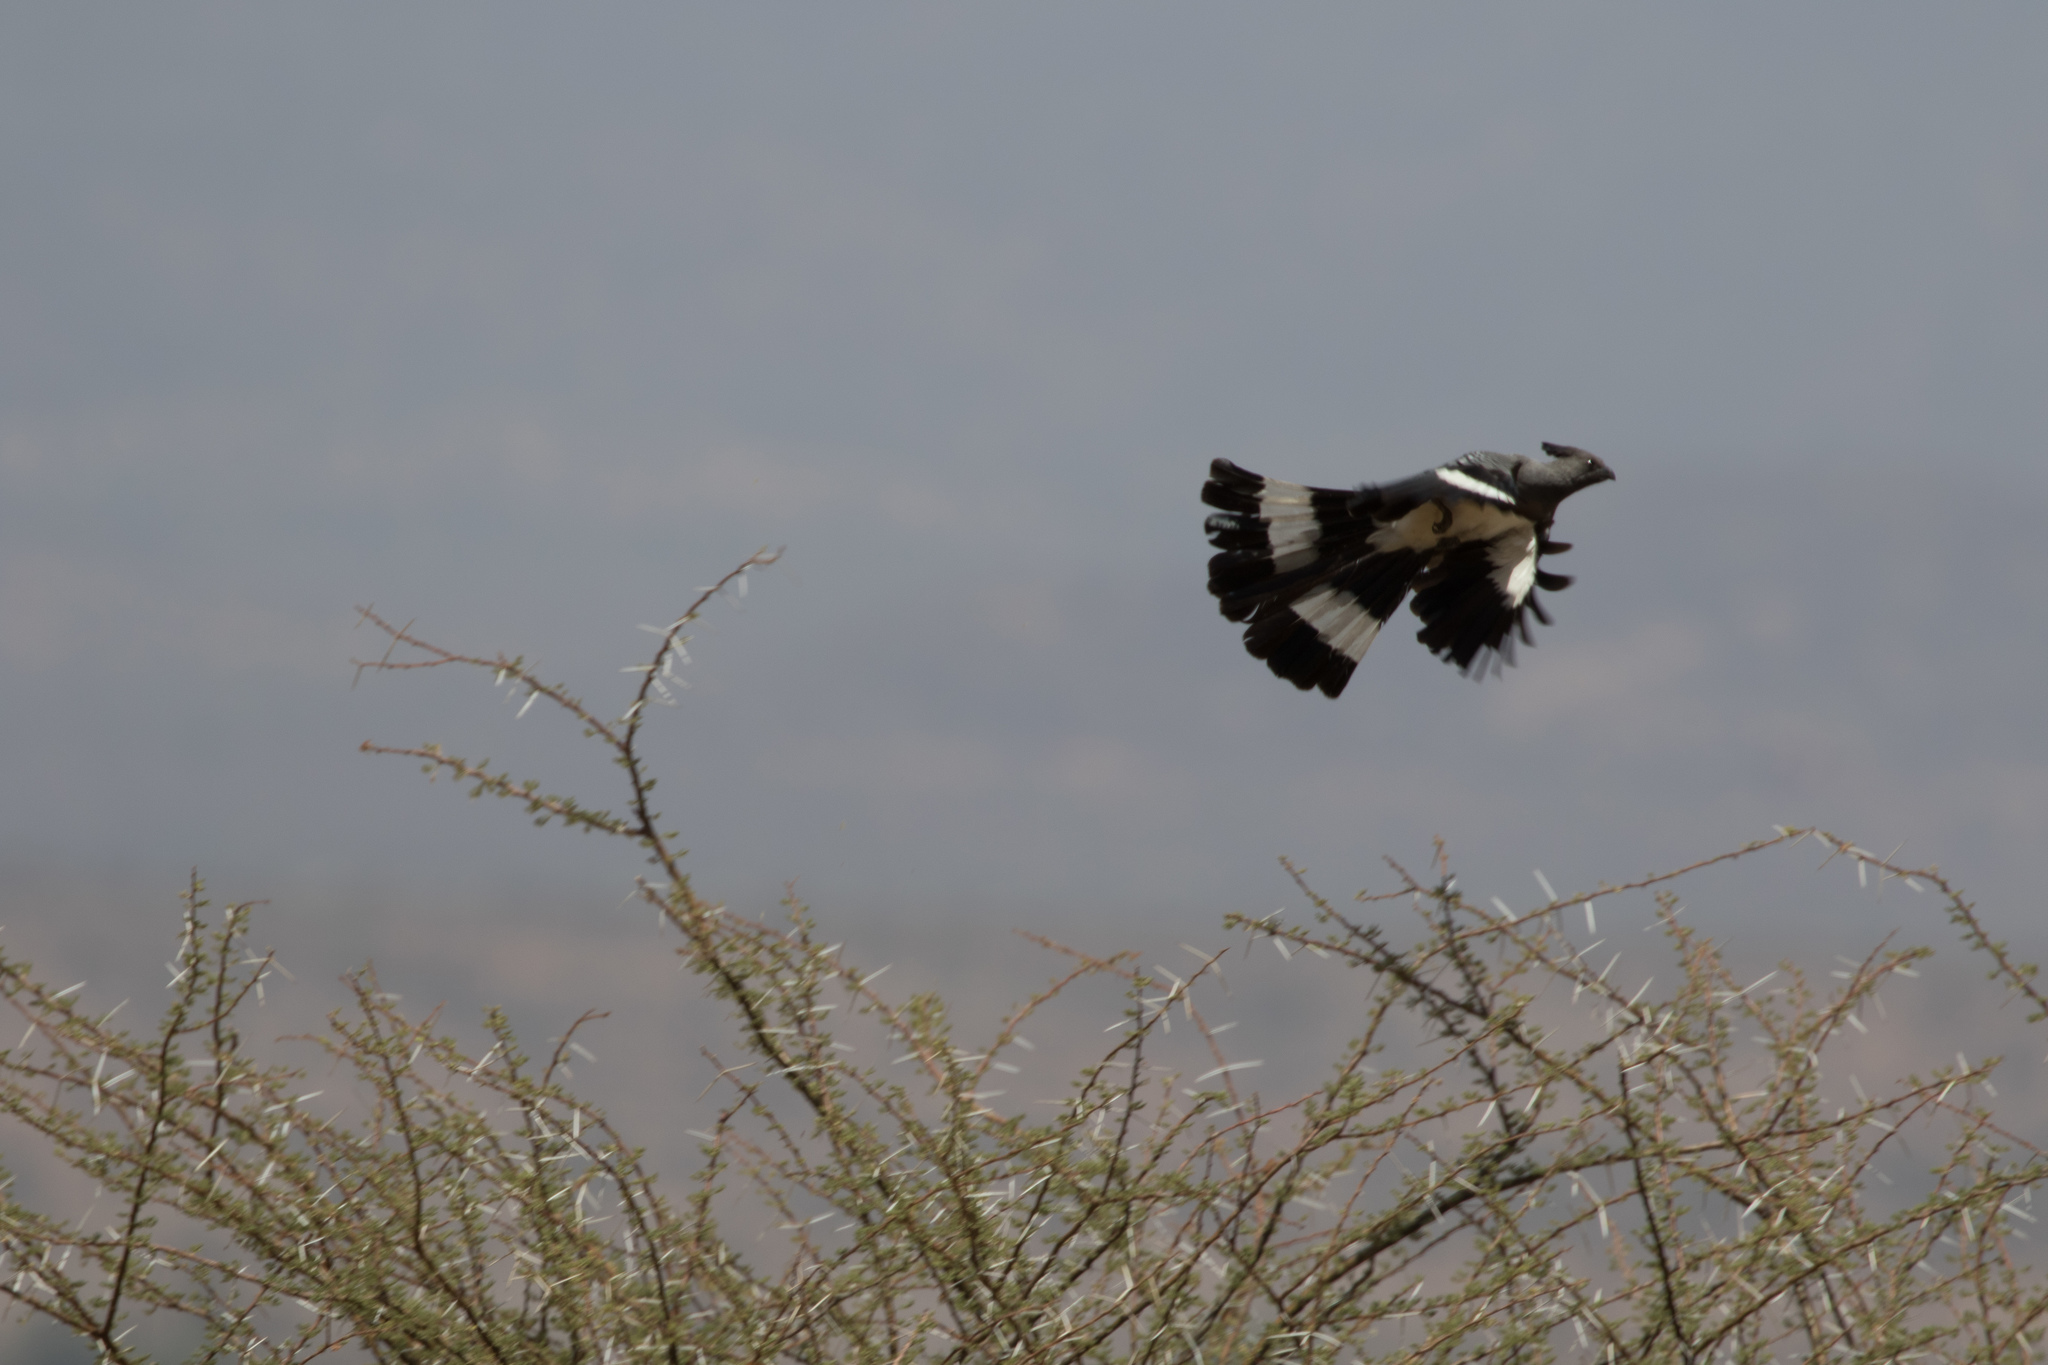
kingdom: Animalia
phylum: Chordata
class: Aves
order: Musophagiformes
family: Musophagidae
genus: Corythaixoides
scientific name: Corythaixoides leucogaster
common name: White-bellied go-away-bird
